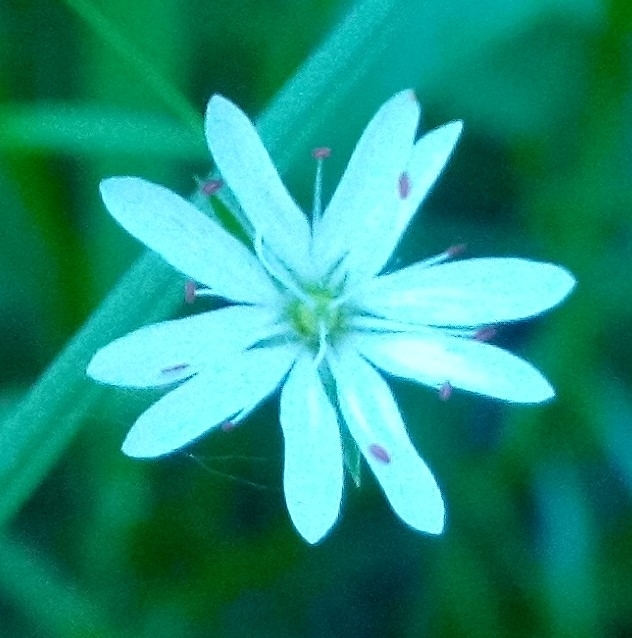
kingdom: Plantae
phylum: Tracheophyta
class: Magnoliopsida
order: Caryophyllales
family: Caryophyllaceae
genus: Stellaria
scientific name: Stellaria graminea
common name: Grass-like starwort
